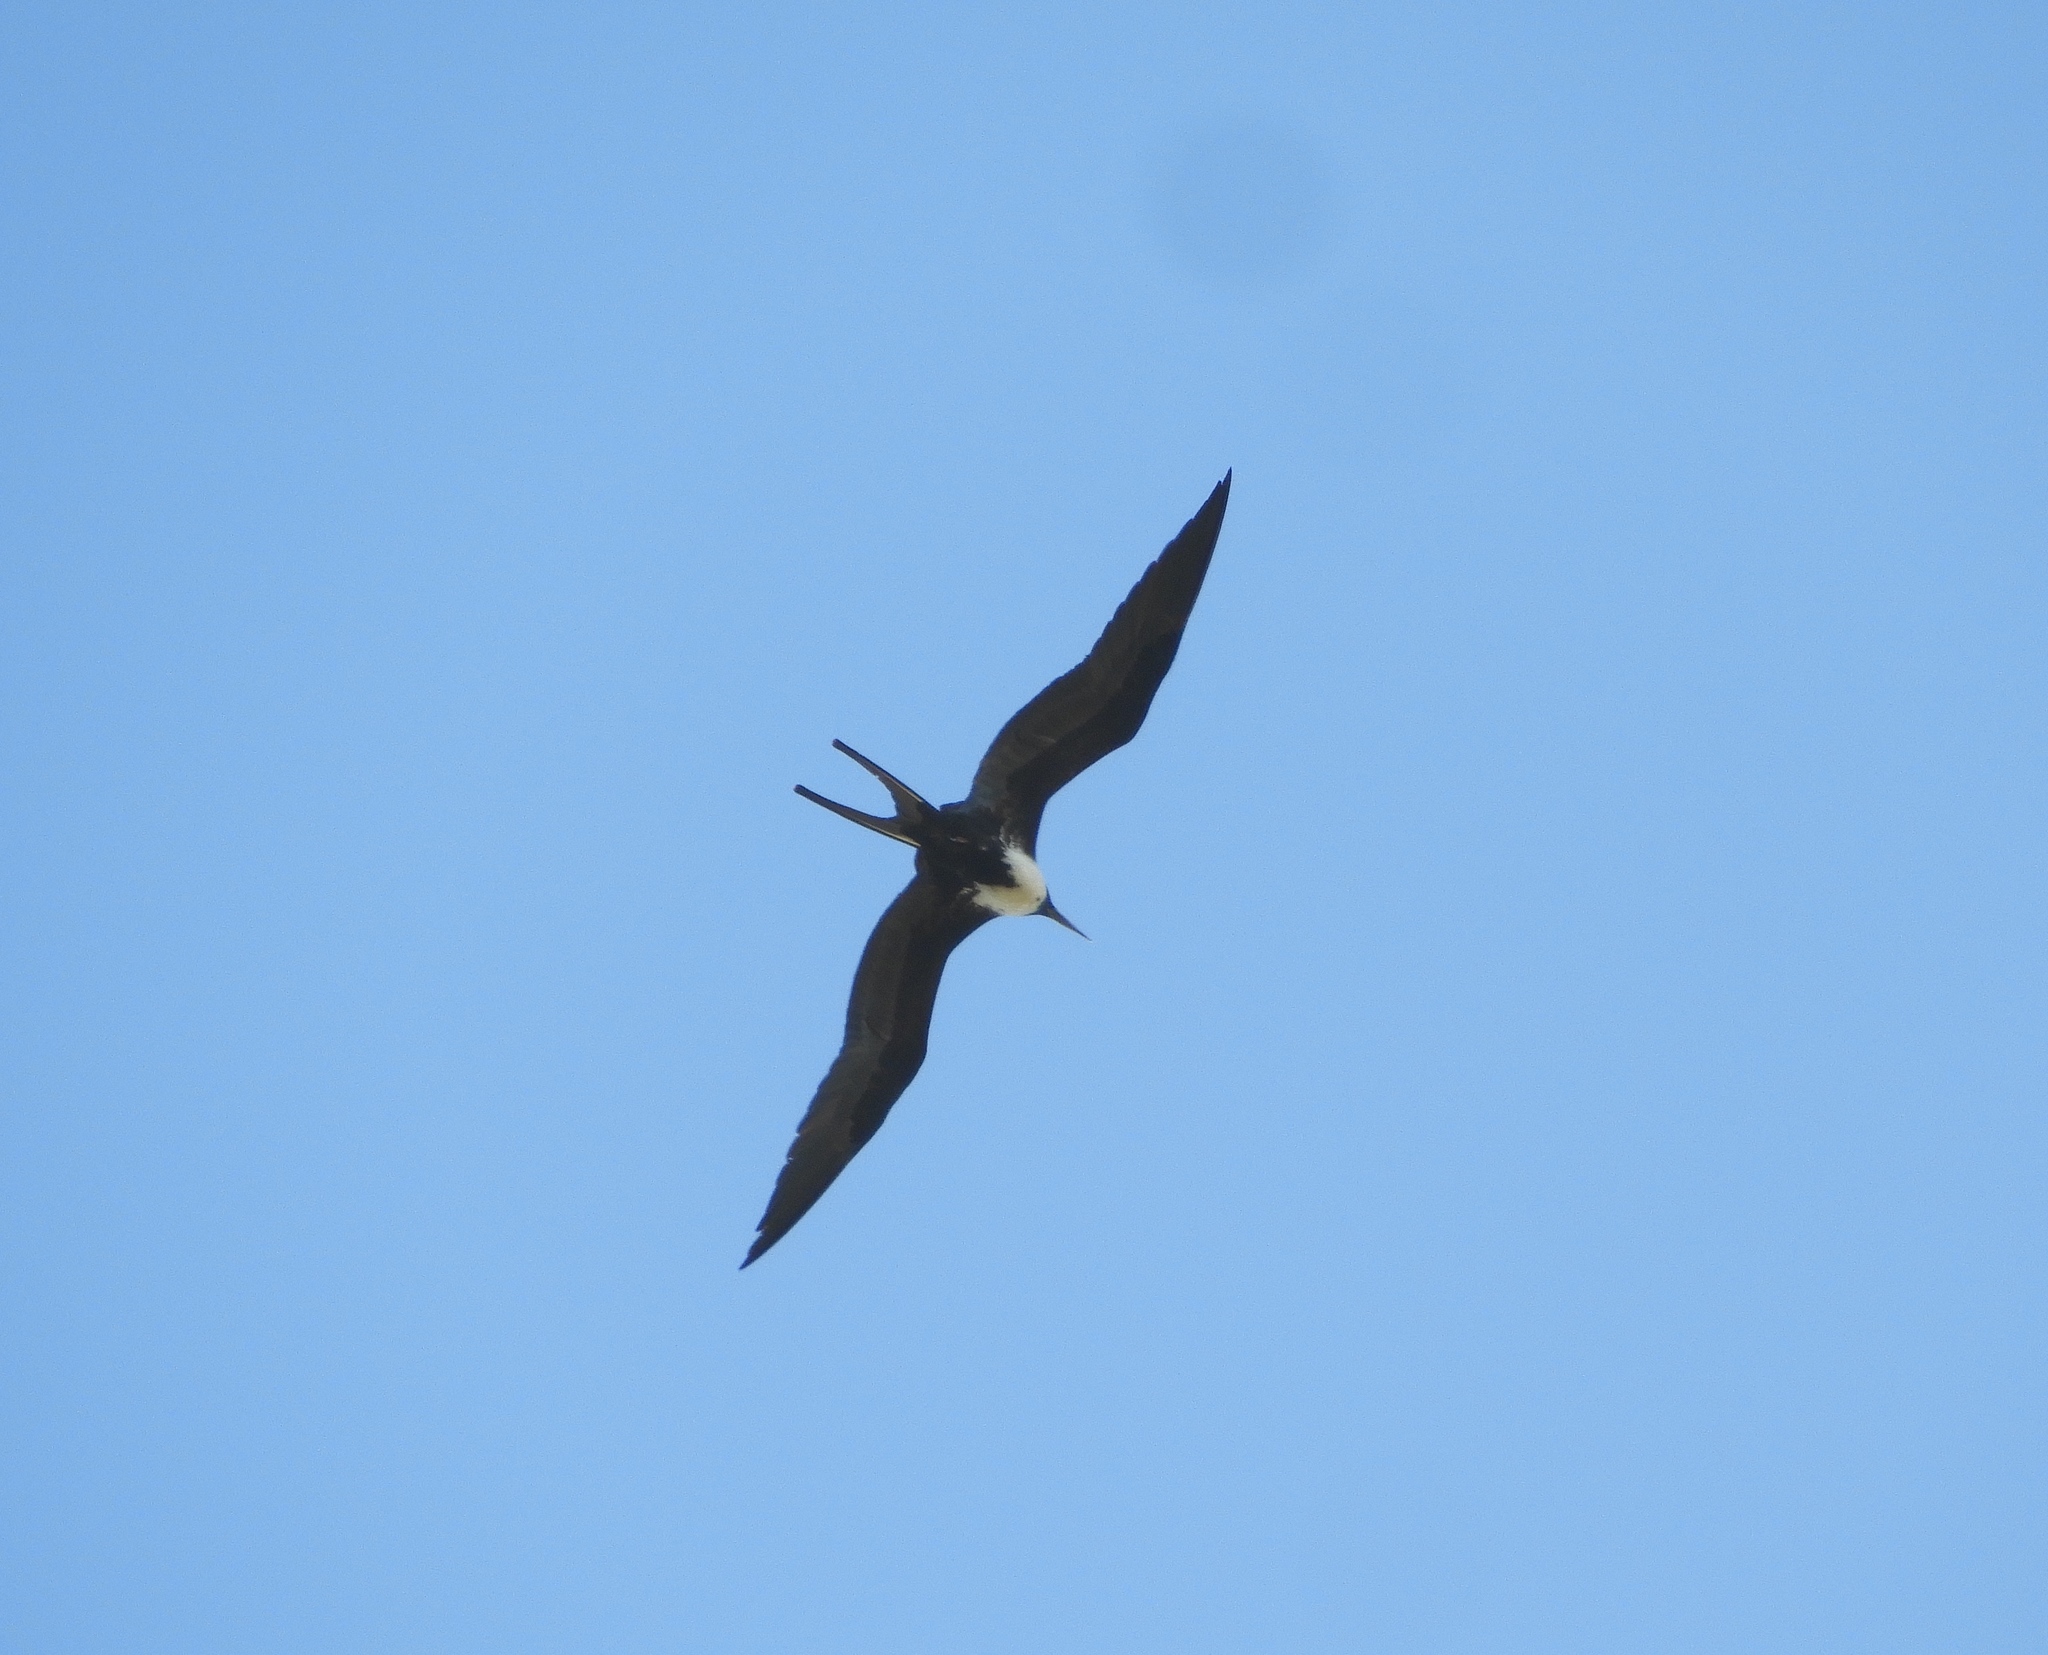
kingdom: Animalia
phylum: Chordata
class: Aves
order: Suliformes
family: Fregatidae
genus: Fregata
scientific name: Fregata magnificens
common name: Magnificent frigatebird
